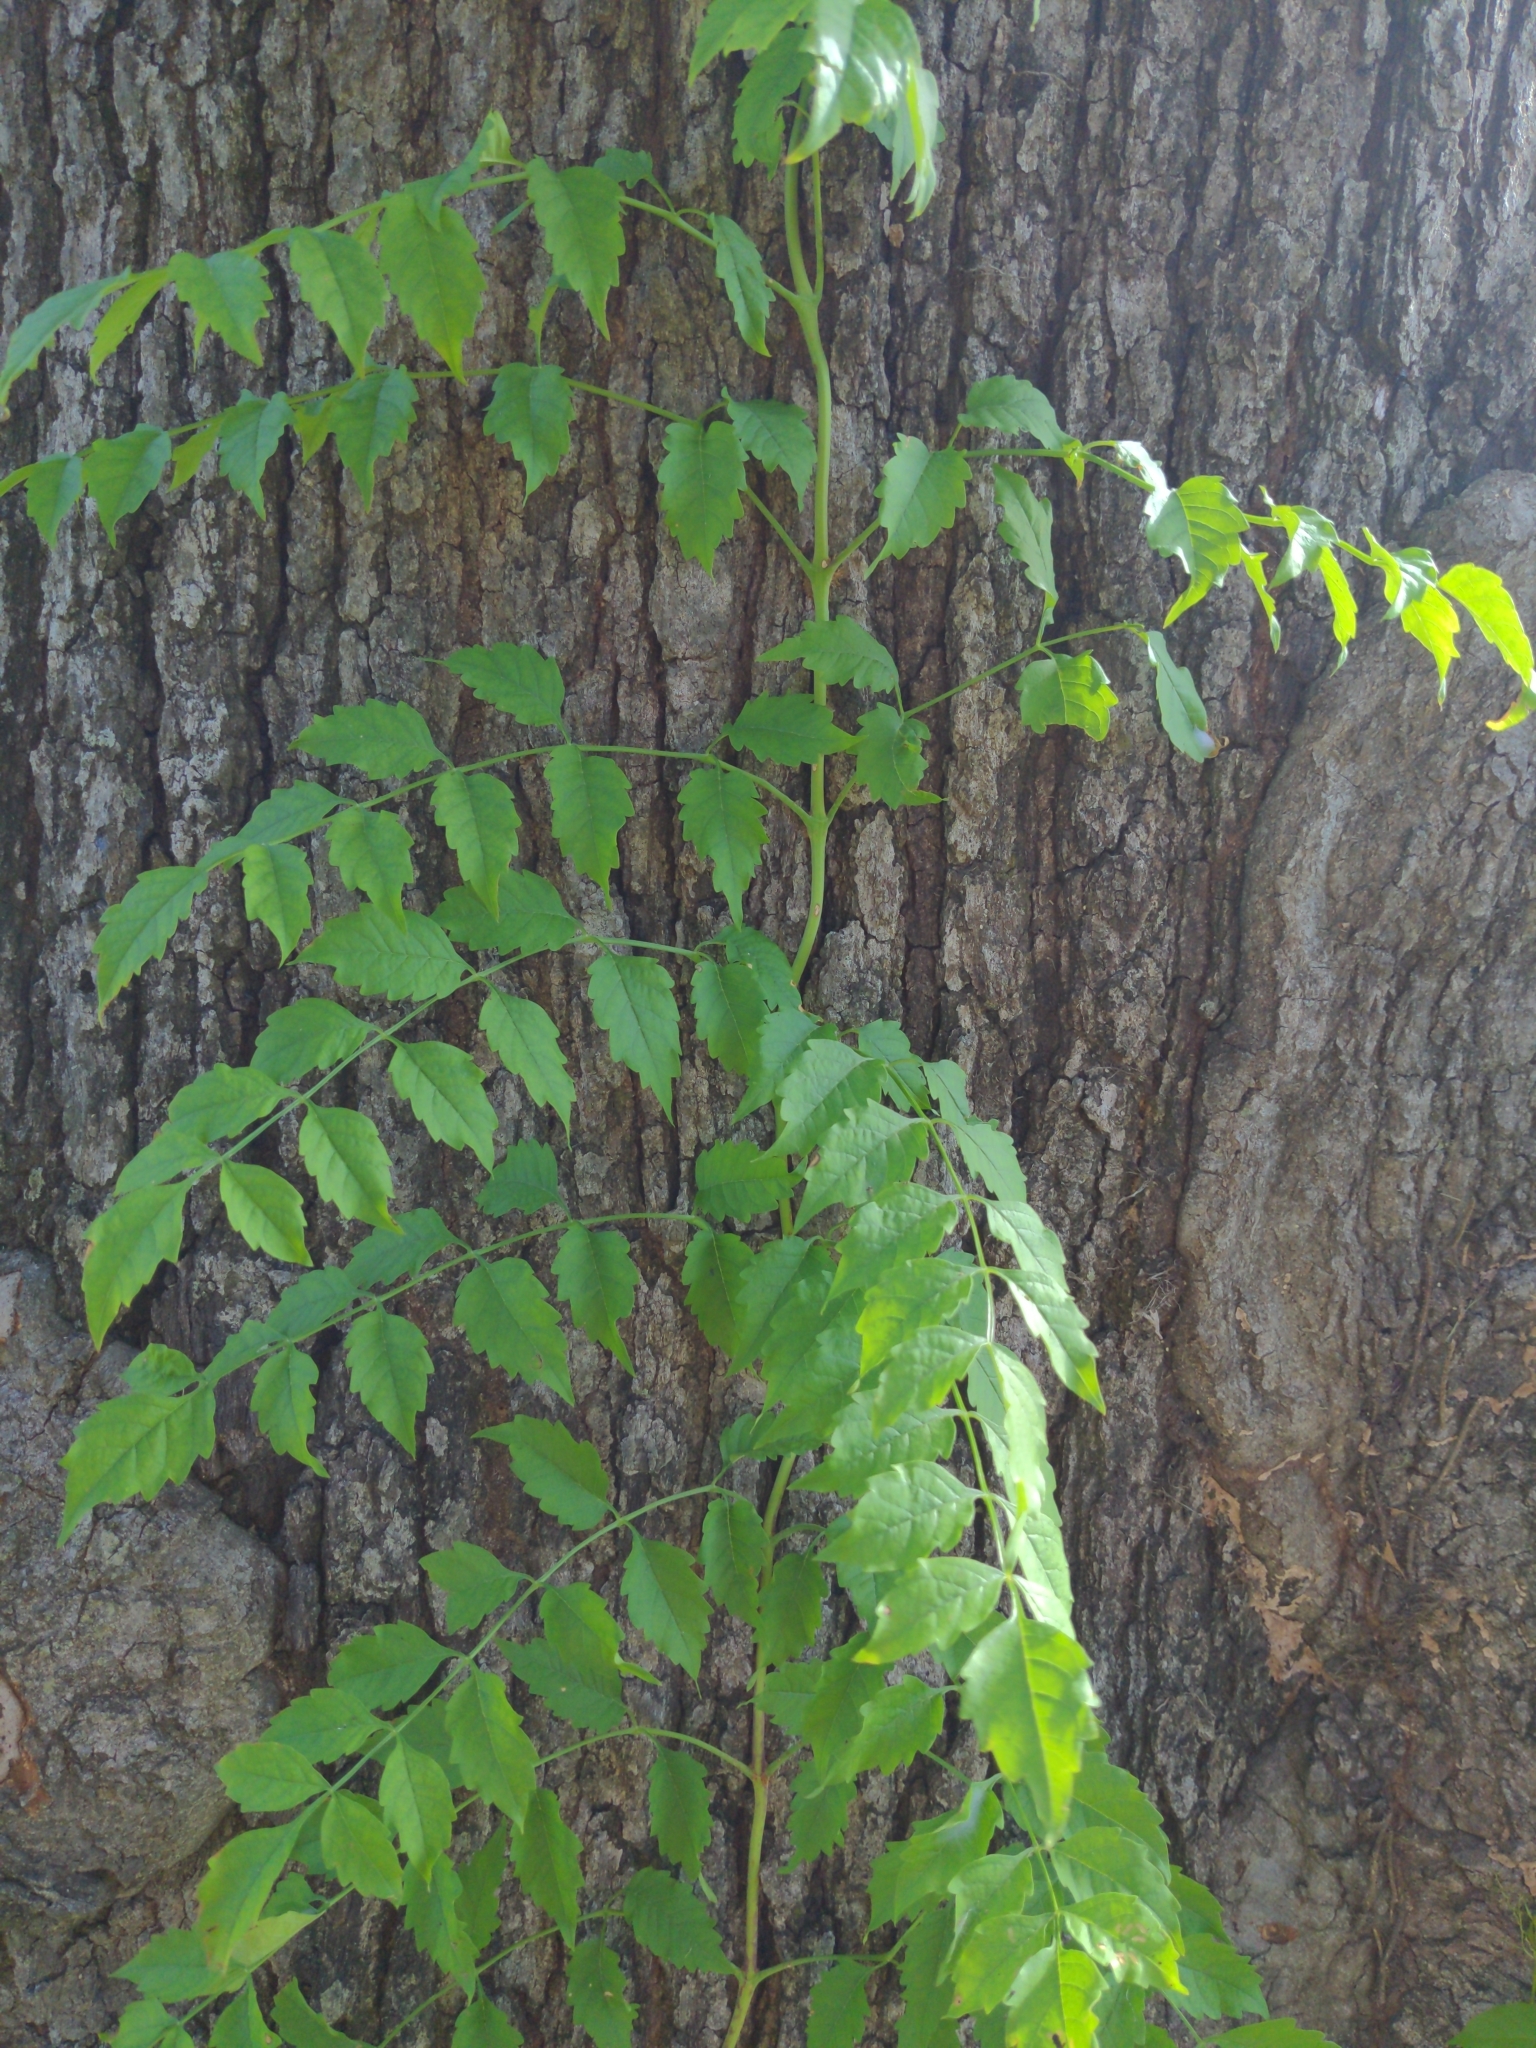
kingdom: Plantae
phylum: Tracheophyta
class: Magnoliopsida
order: Lamiales
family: Bignoniaceae
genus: Campsis
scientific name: Campsis radicans
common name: Trumpet-creeper
